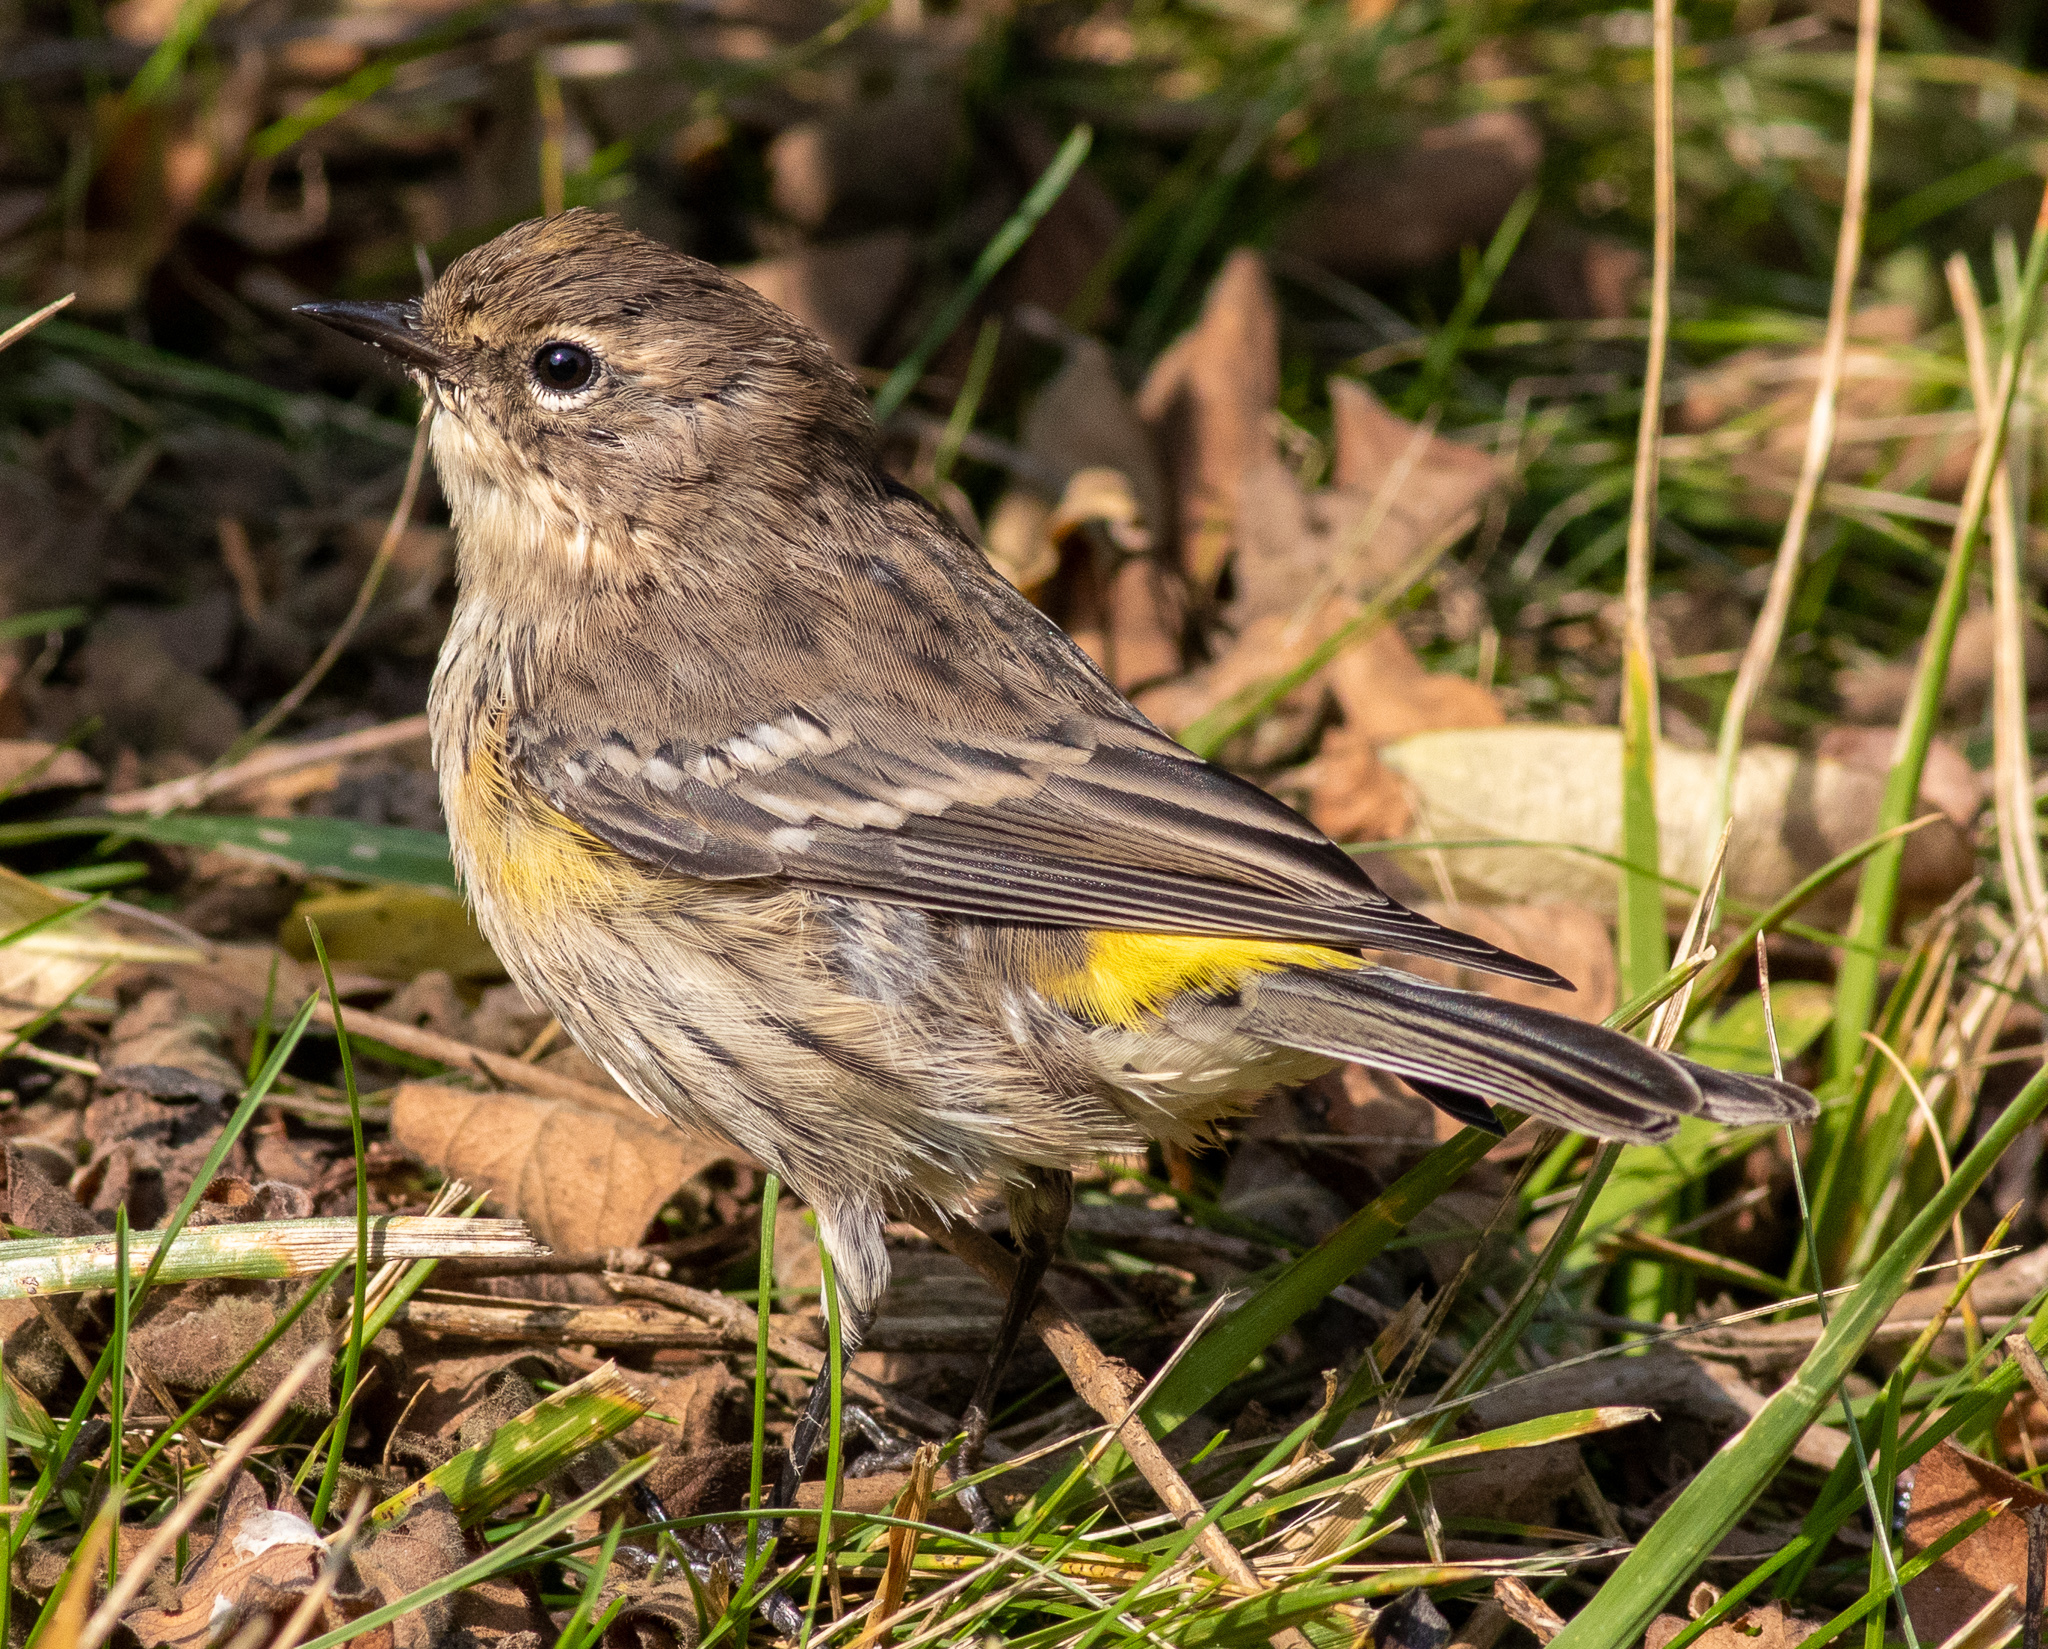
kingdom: Animalia
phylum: Chordata
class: Aves
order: Passeriformes
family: Parulidae
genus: Setophaga
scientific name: Setophaga coronata
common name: Myrtle warbler
